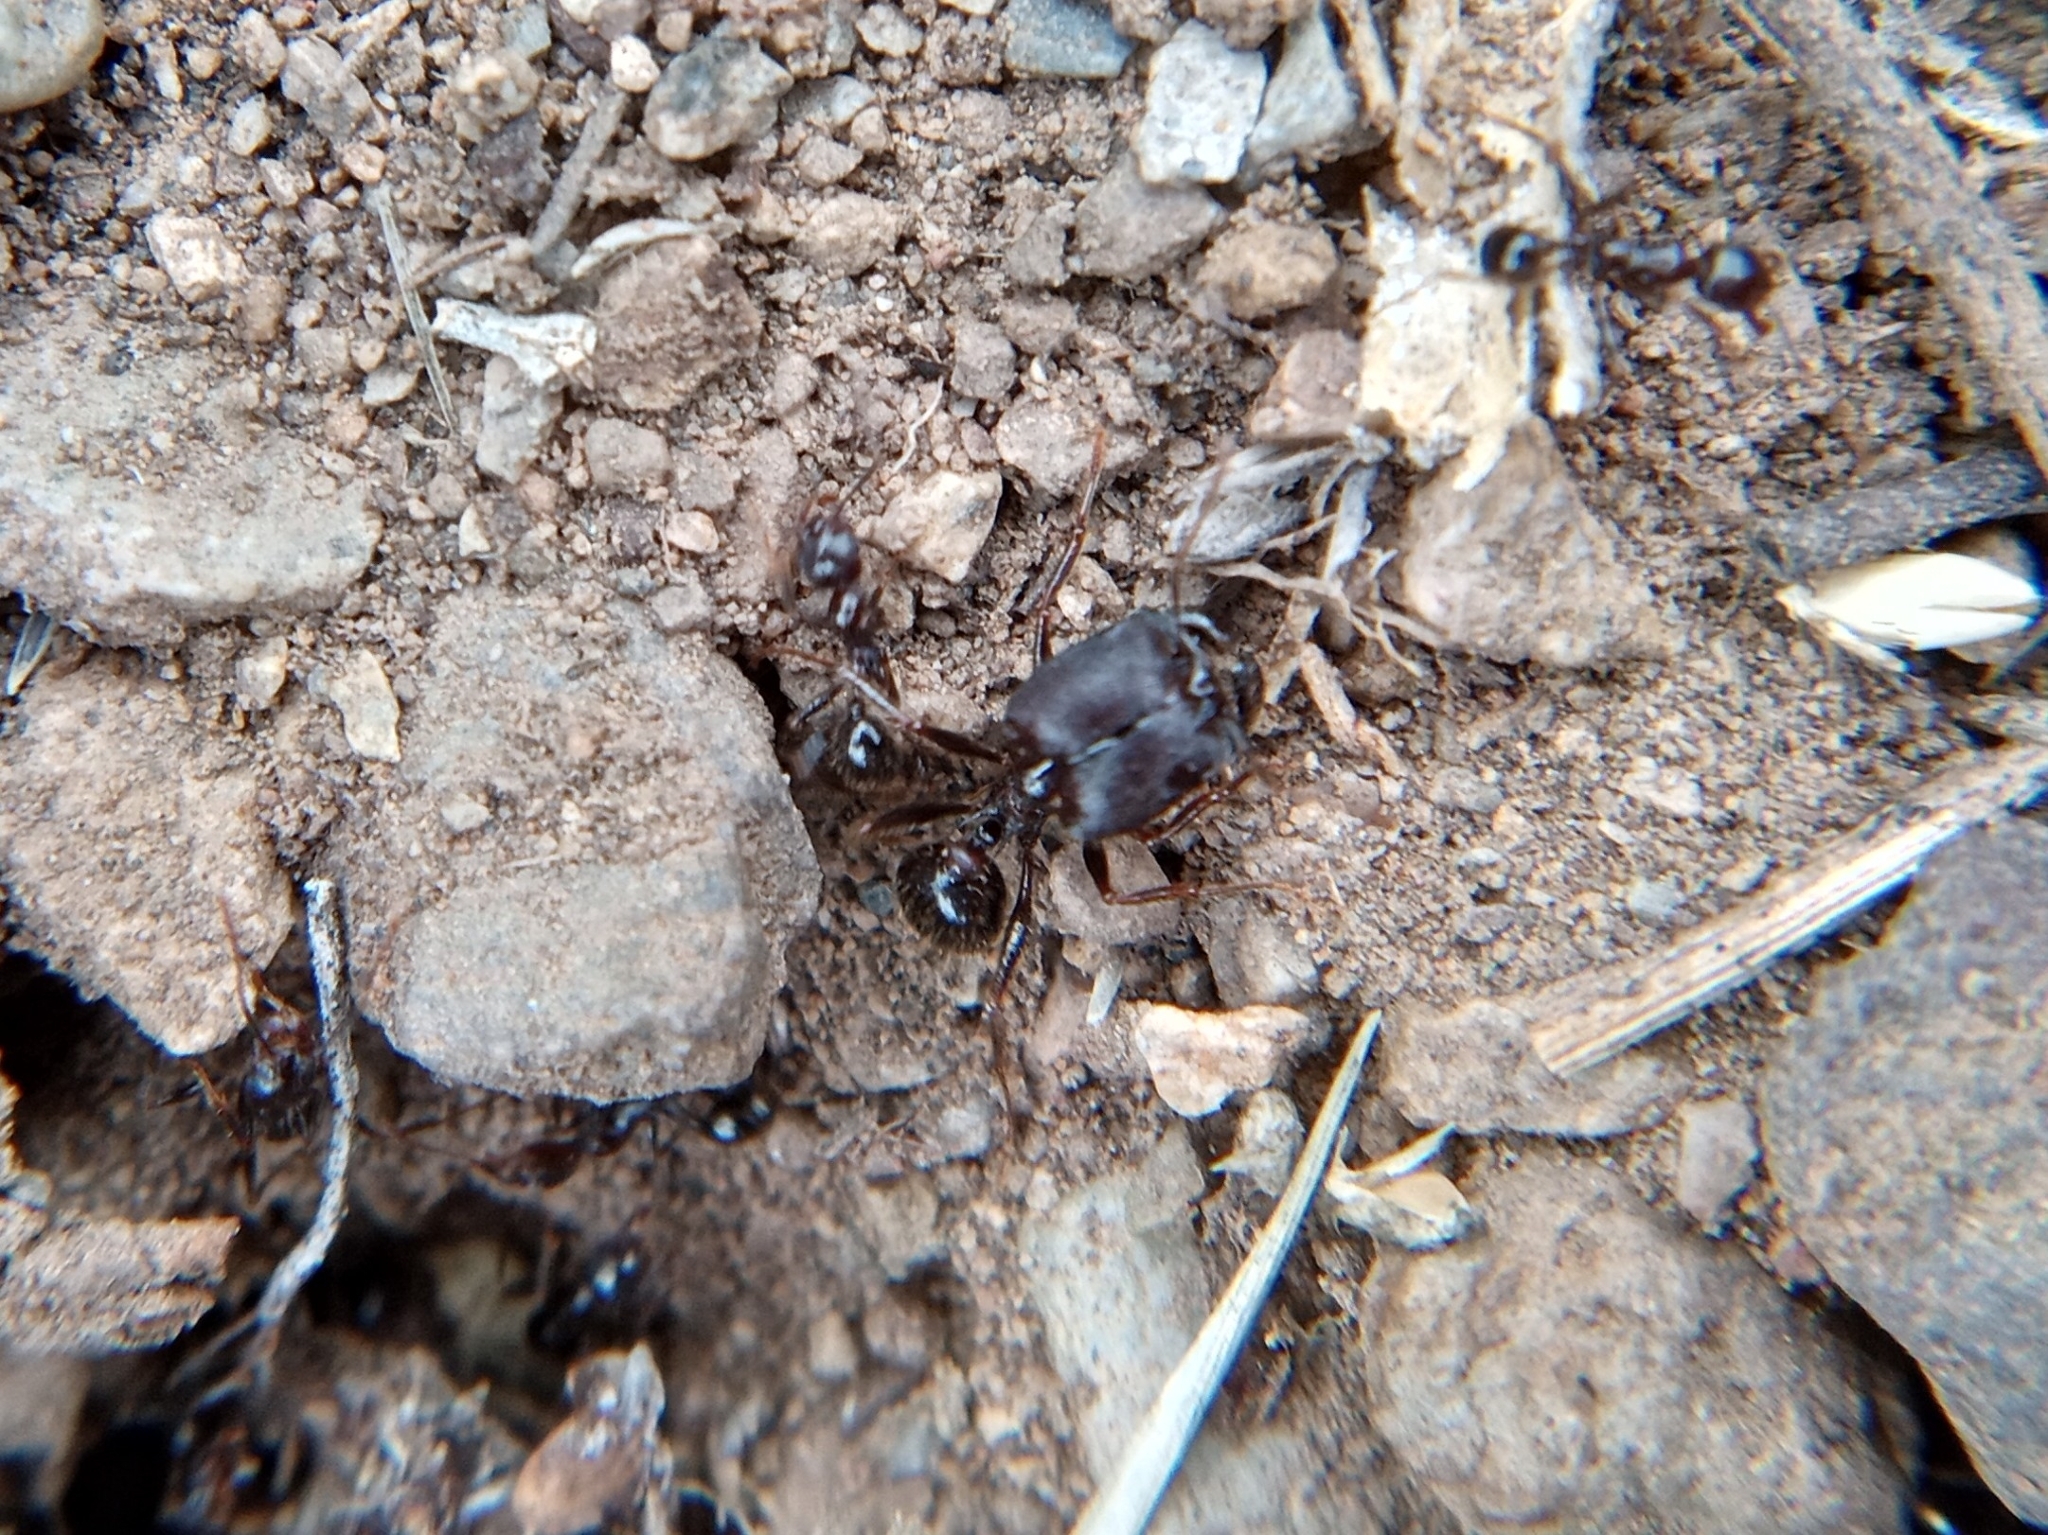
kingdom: Animalia
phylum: Arthropoda
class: Insecta
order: Hymenoptera
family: Formicidae
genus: Pheidole
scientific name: Pheidole rhea
